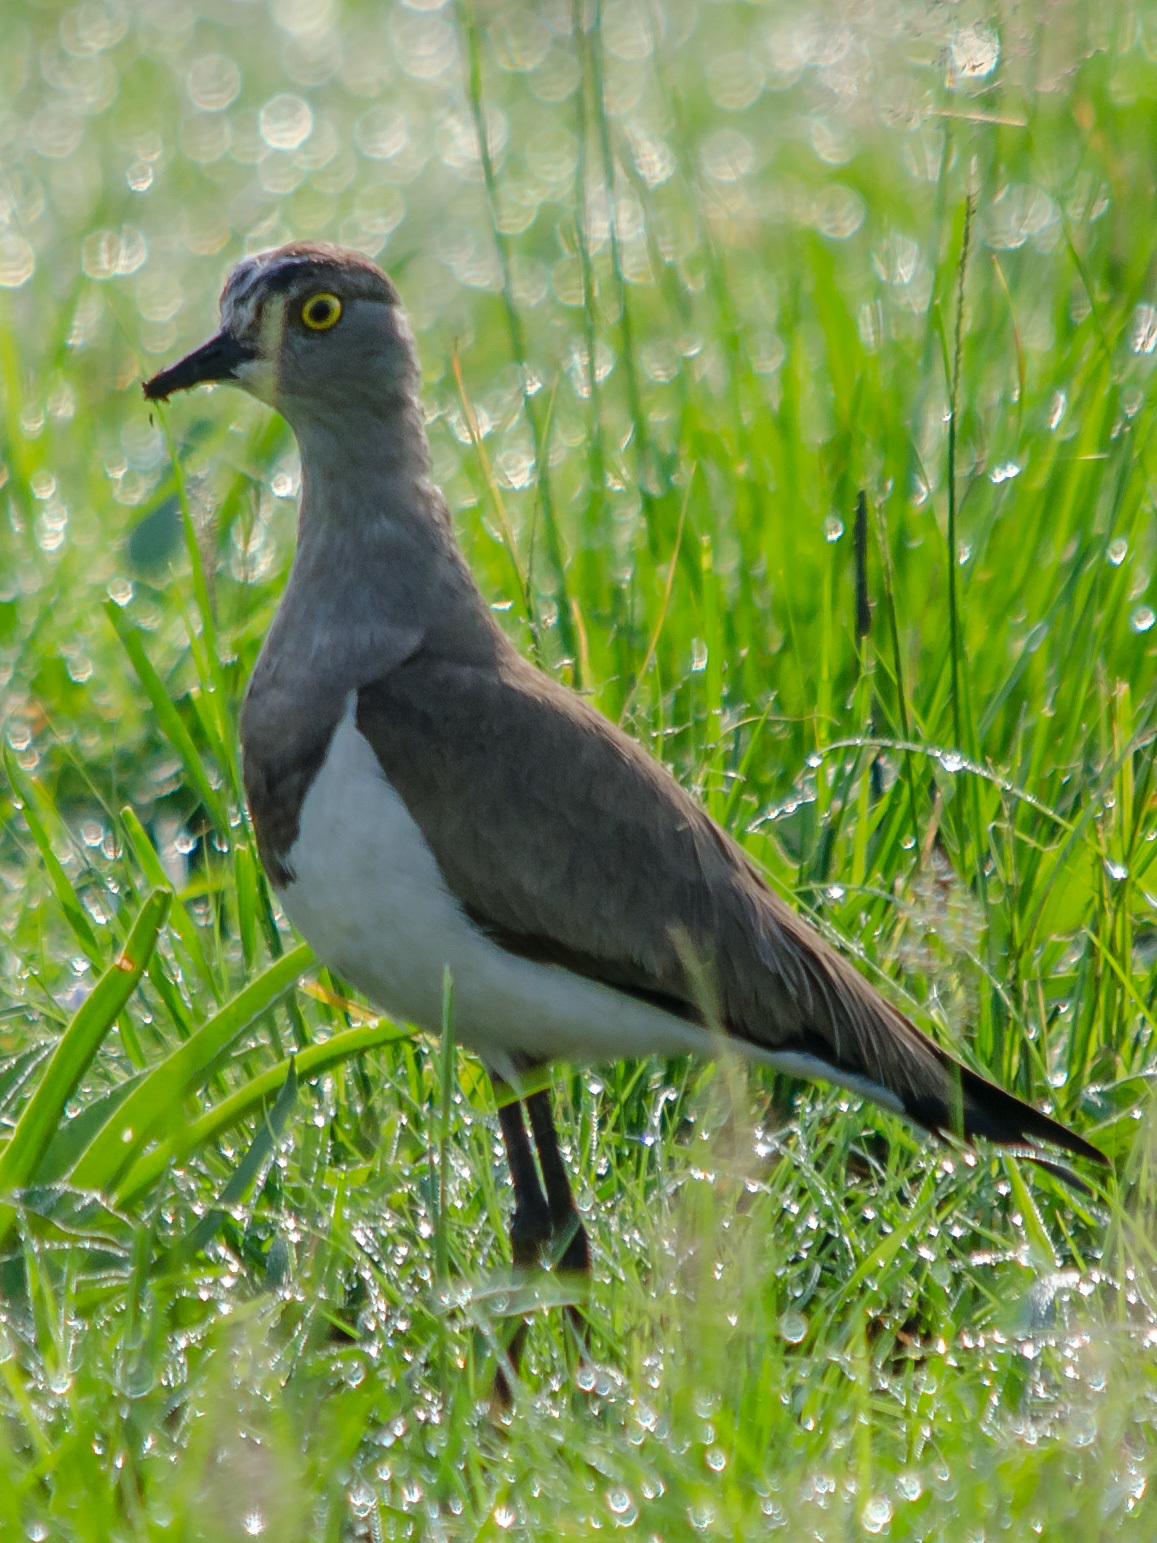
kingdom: Animalia
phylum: Chordata
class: Aves
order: Charadriiformes
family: Charadriidae
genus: Vanellus
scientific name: Vanellus lugubris
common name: Senegal lapwing
